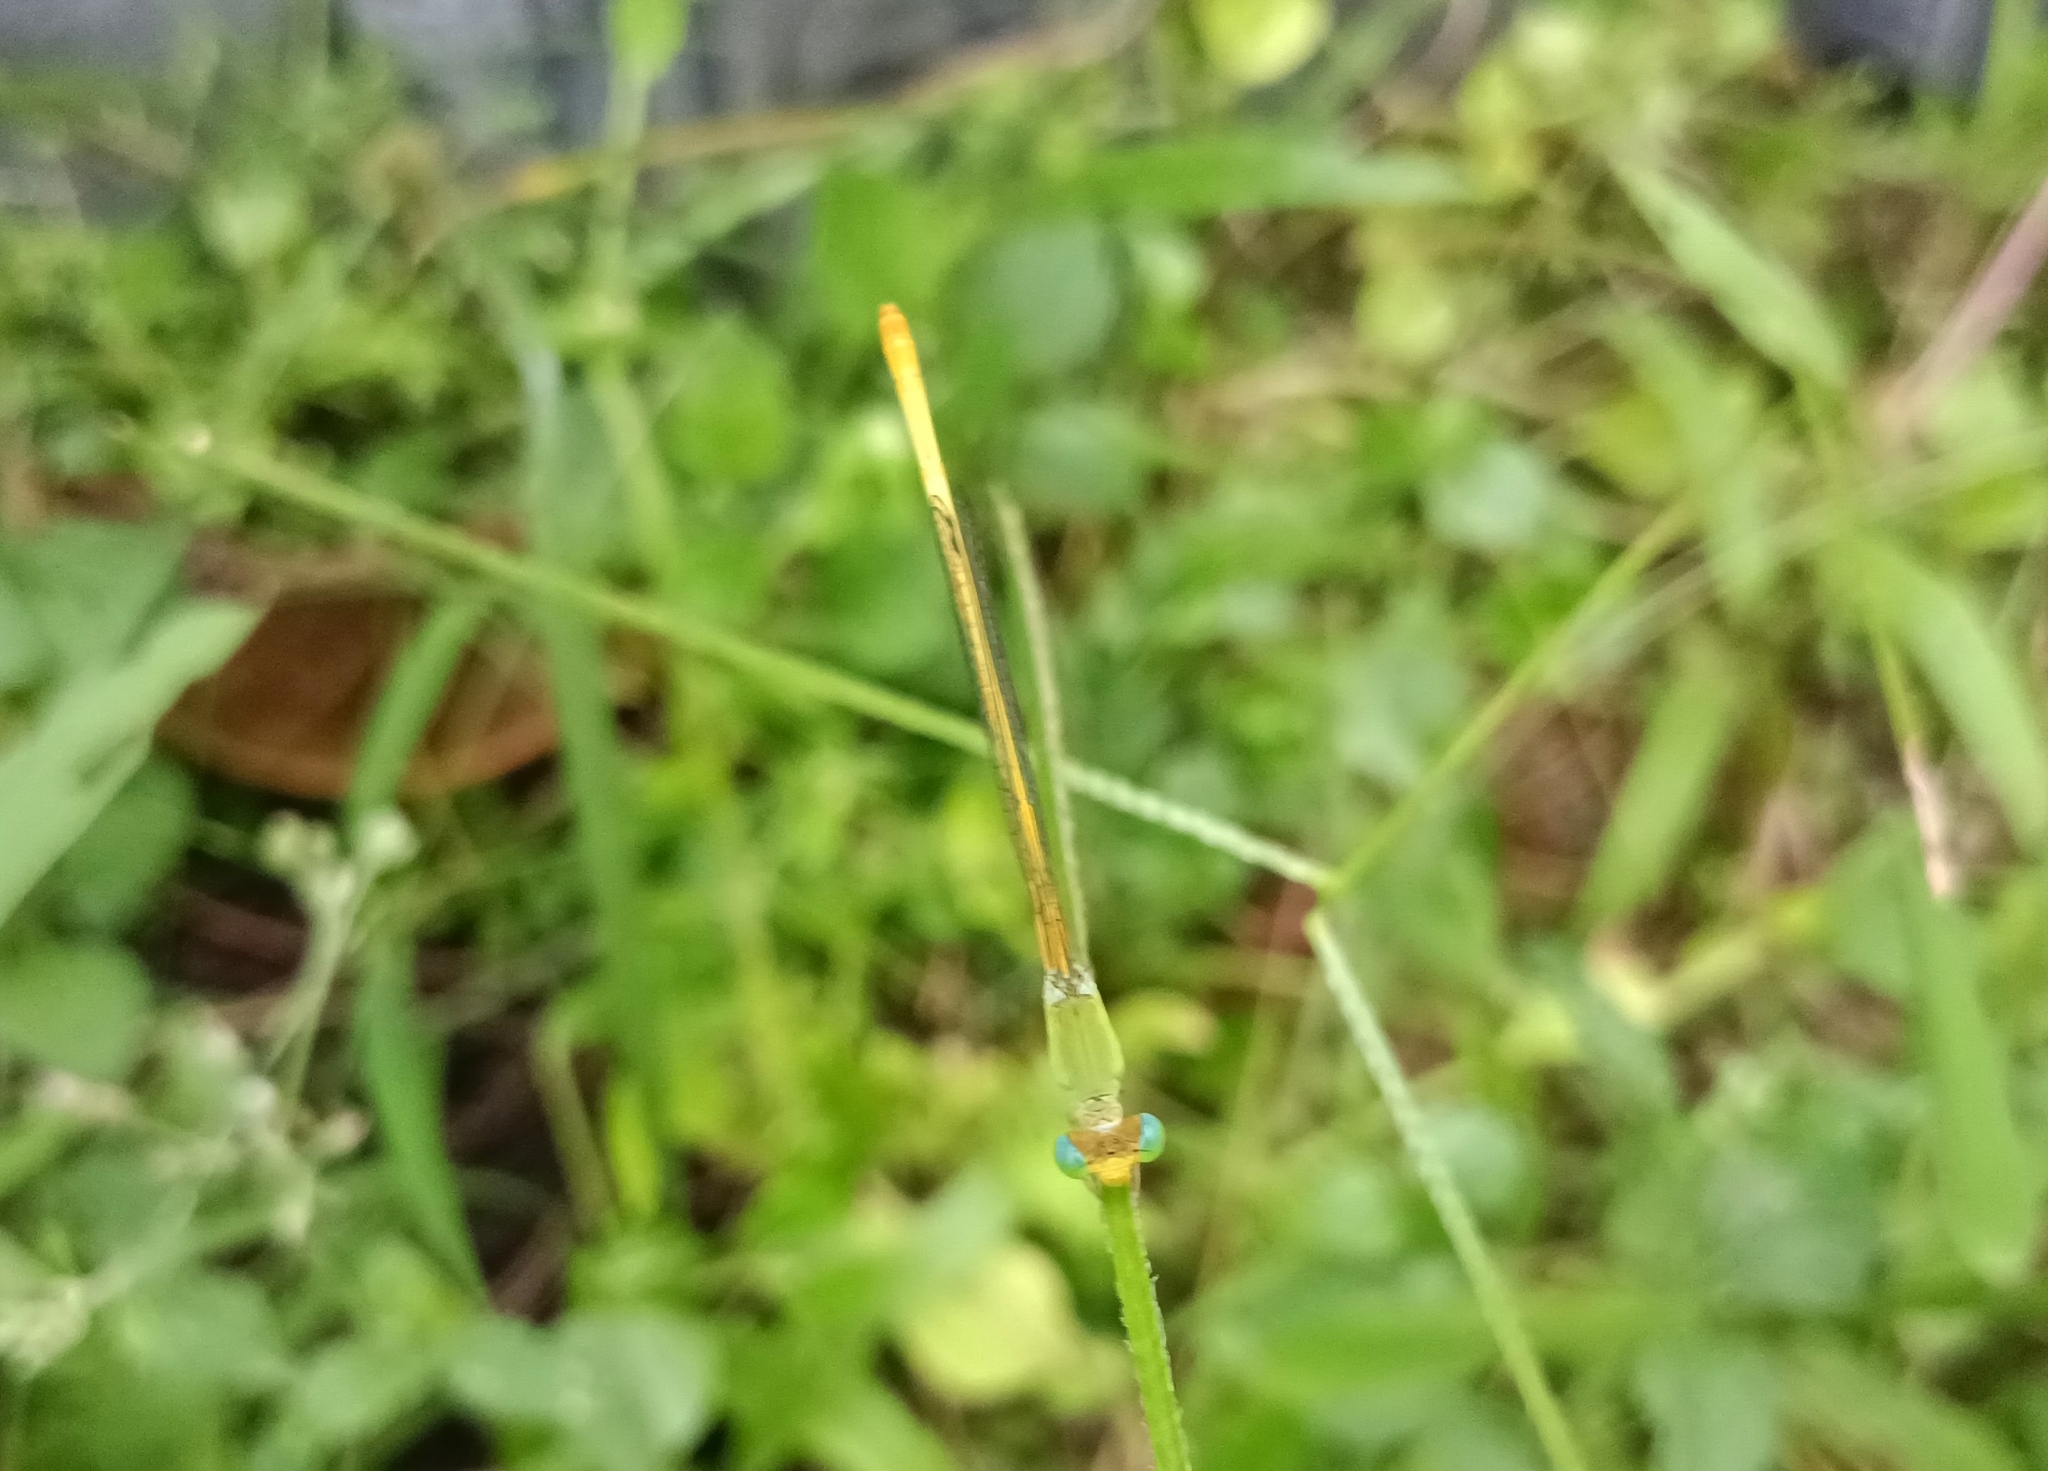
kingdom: Animalia
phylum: Arthropoda
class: Insecta
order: Odonata
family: Coenagrionidae
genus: Ceriagrion
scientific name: Ceriagrion coromandelianum
